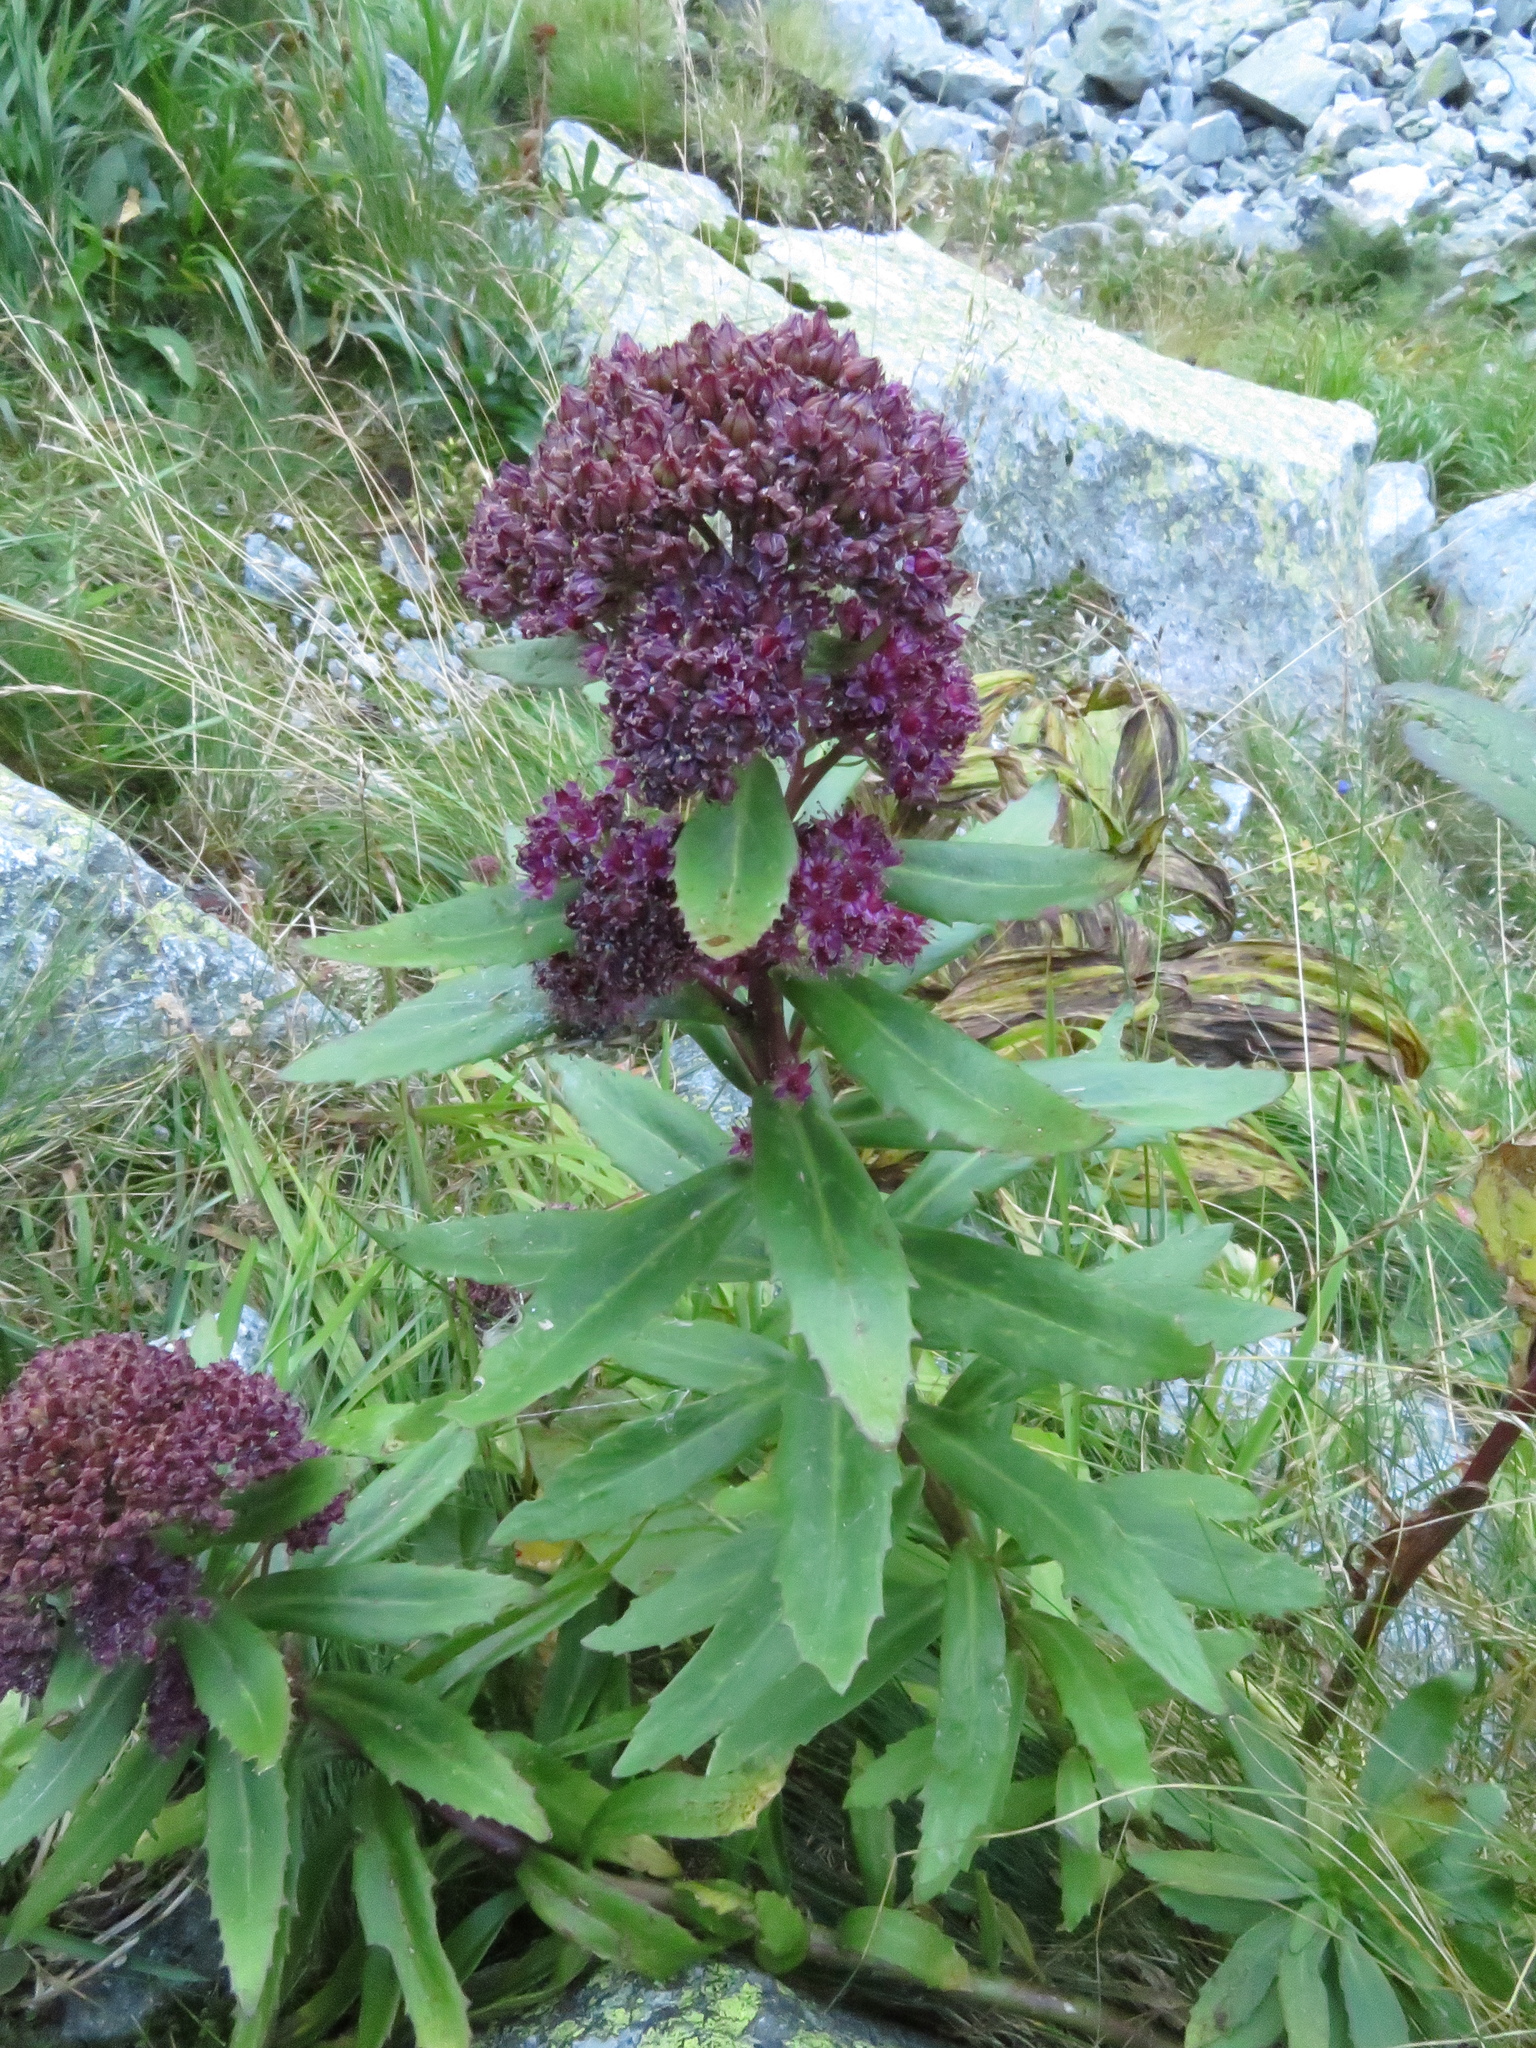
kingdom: Plantae
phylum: Tracheophyta
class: Magnoliopsida
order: Saxifragales
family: Crassulaceae
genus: Hylotelephium
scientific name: Hylotelephium vulgare
